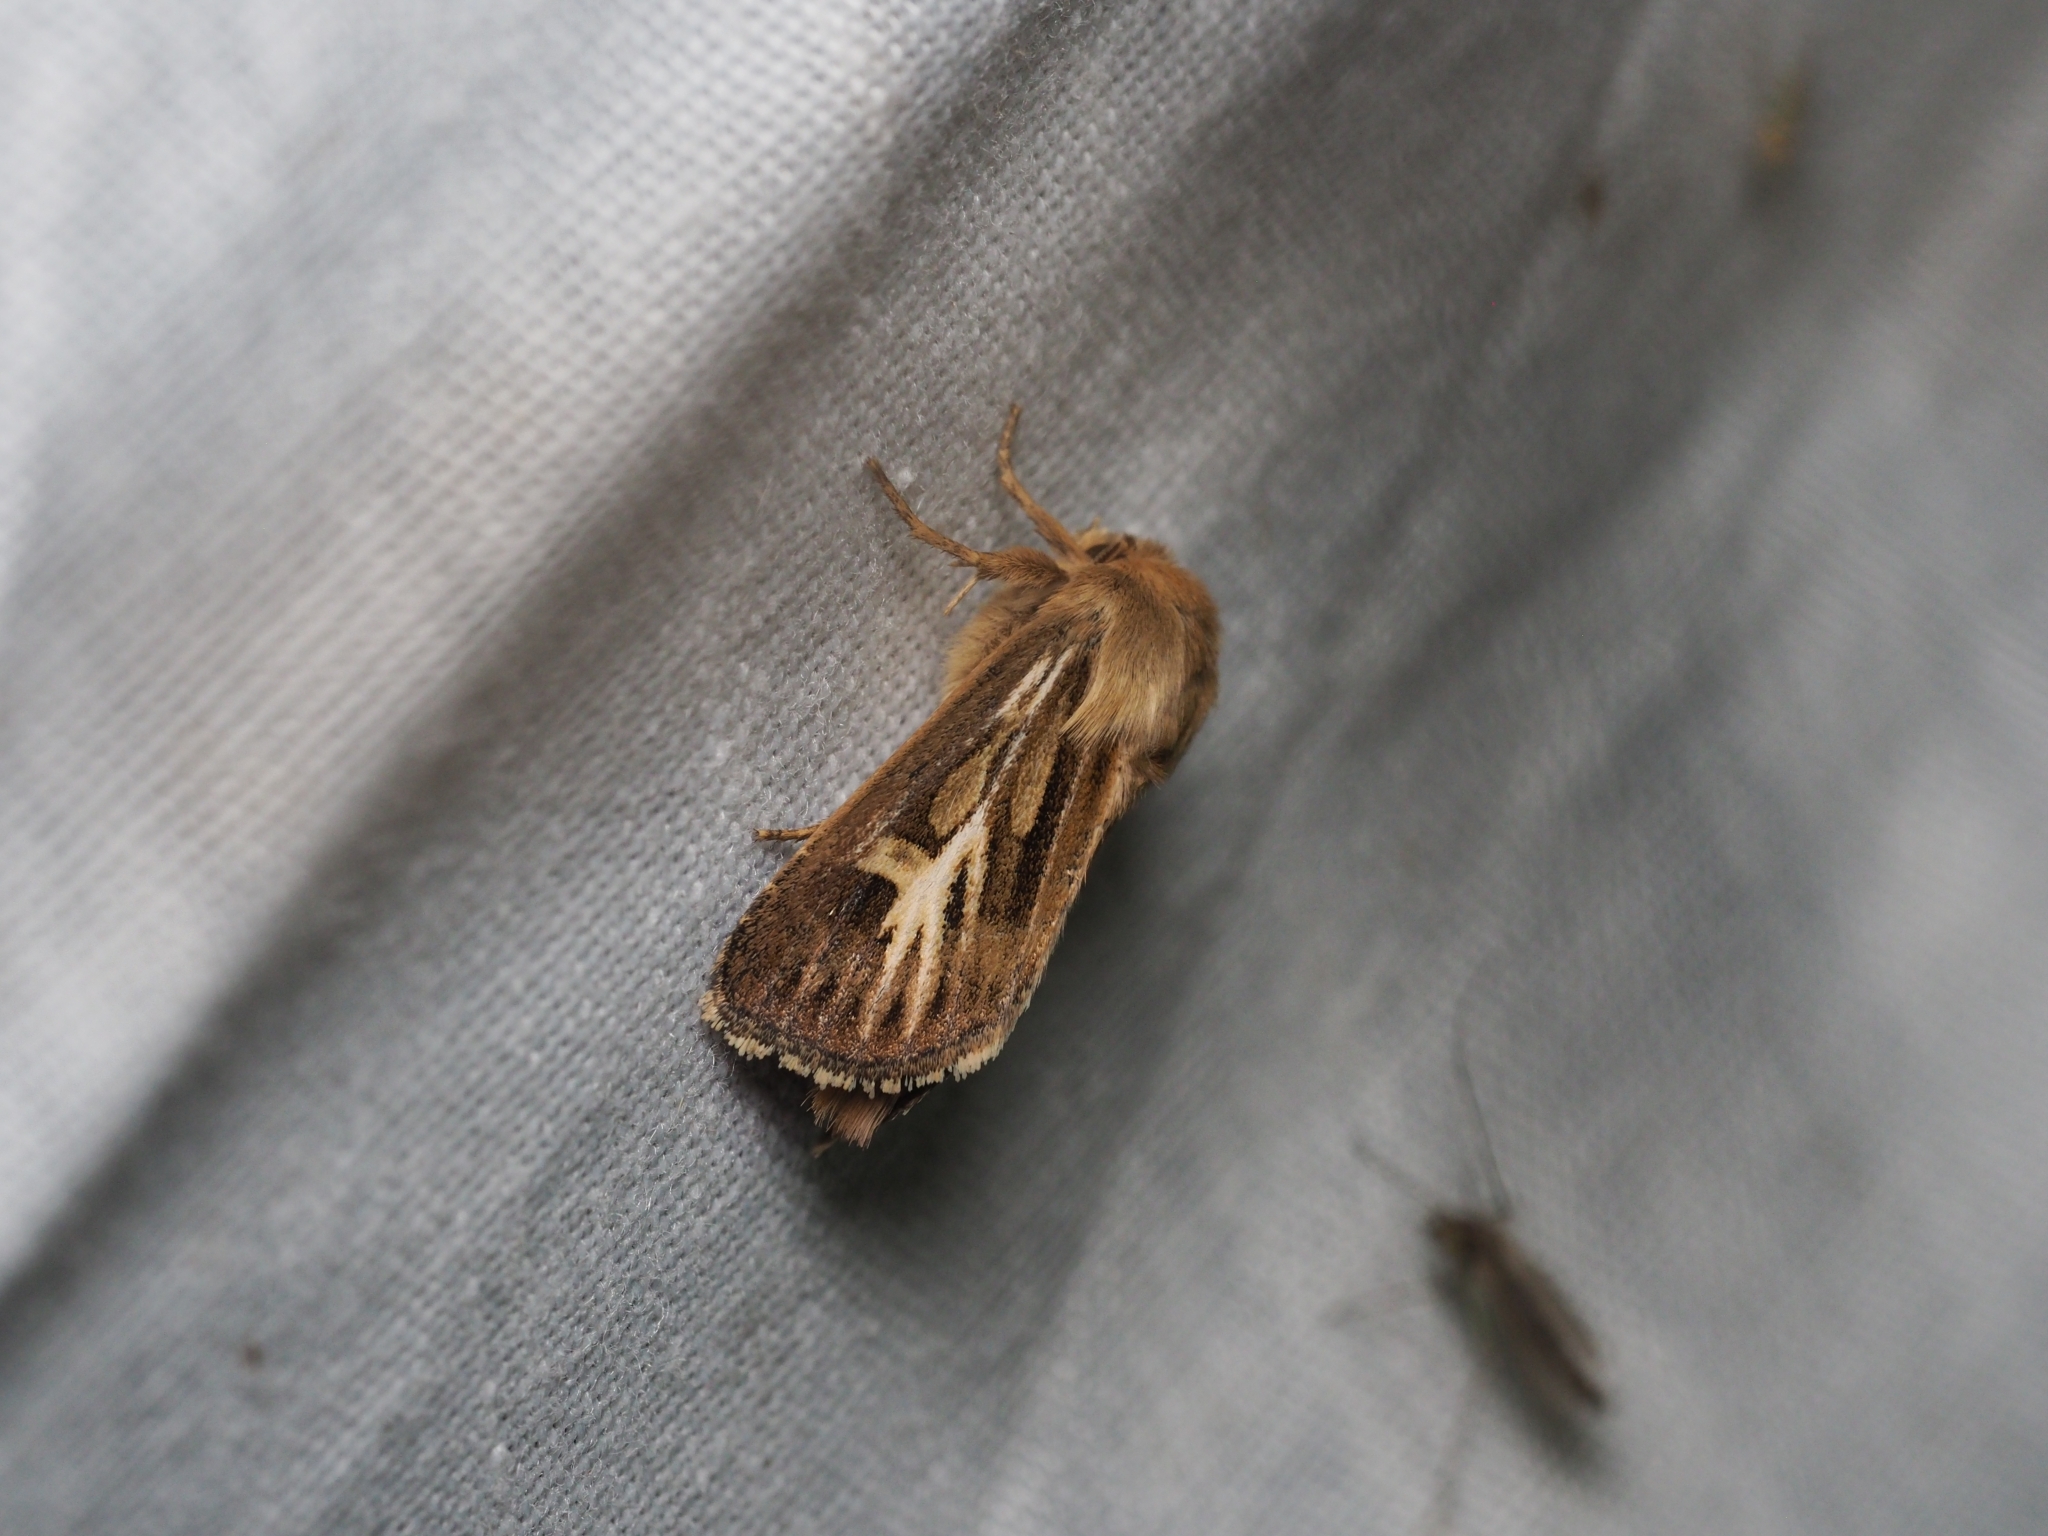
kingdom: Animalia
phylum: Arthropoda
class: Insecta
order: Lepidoptera
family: Noctuidae
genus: Cerapteryx
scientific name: Cerapteryx graminis
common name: Antler moth
